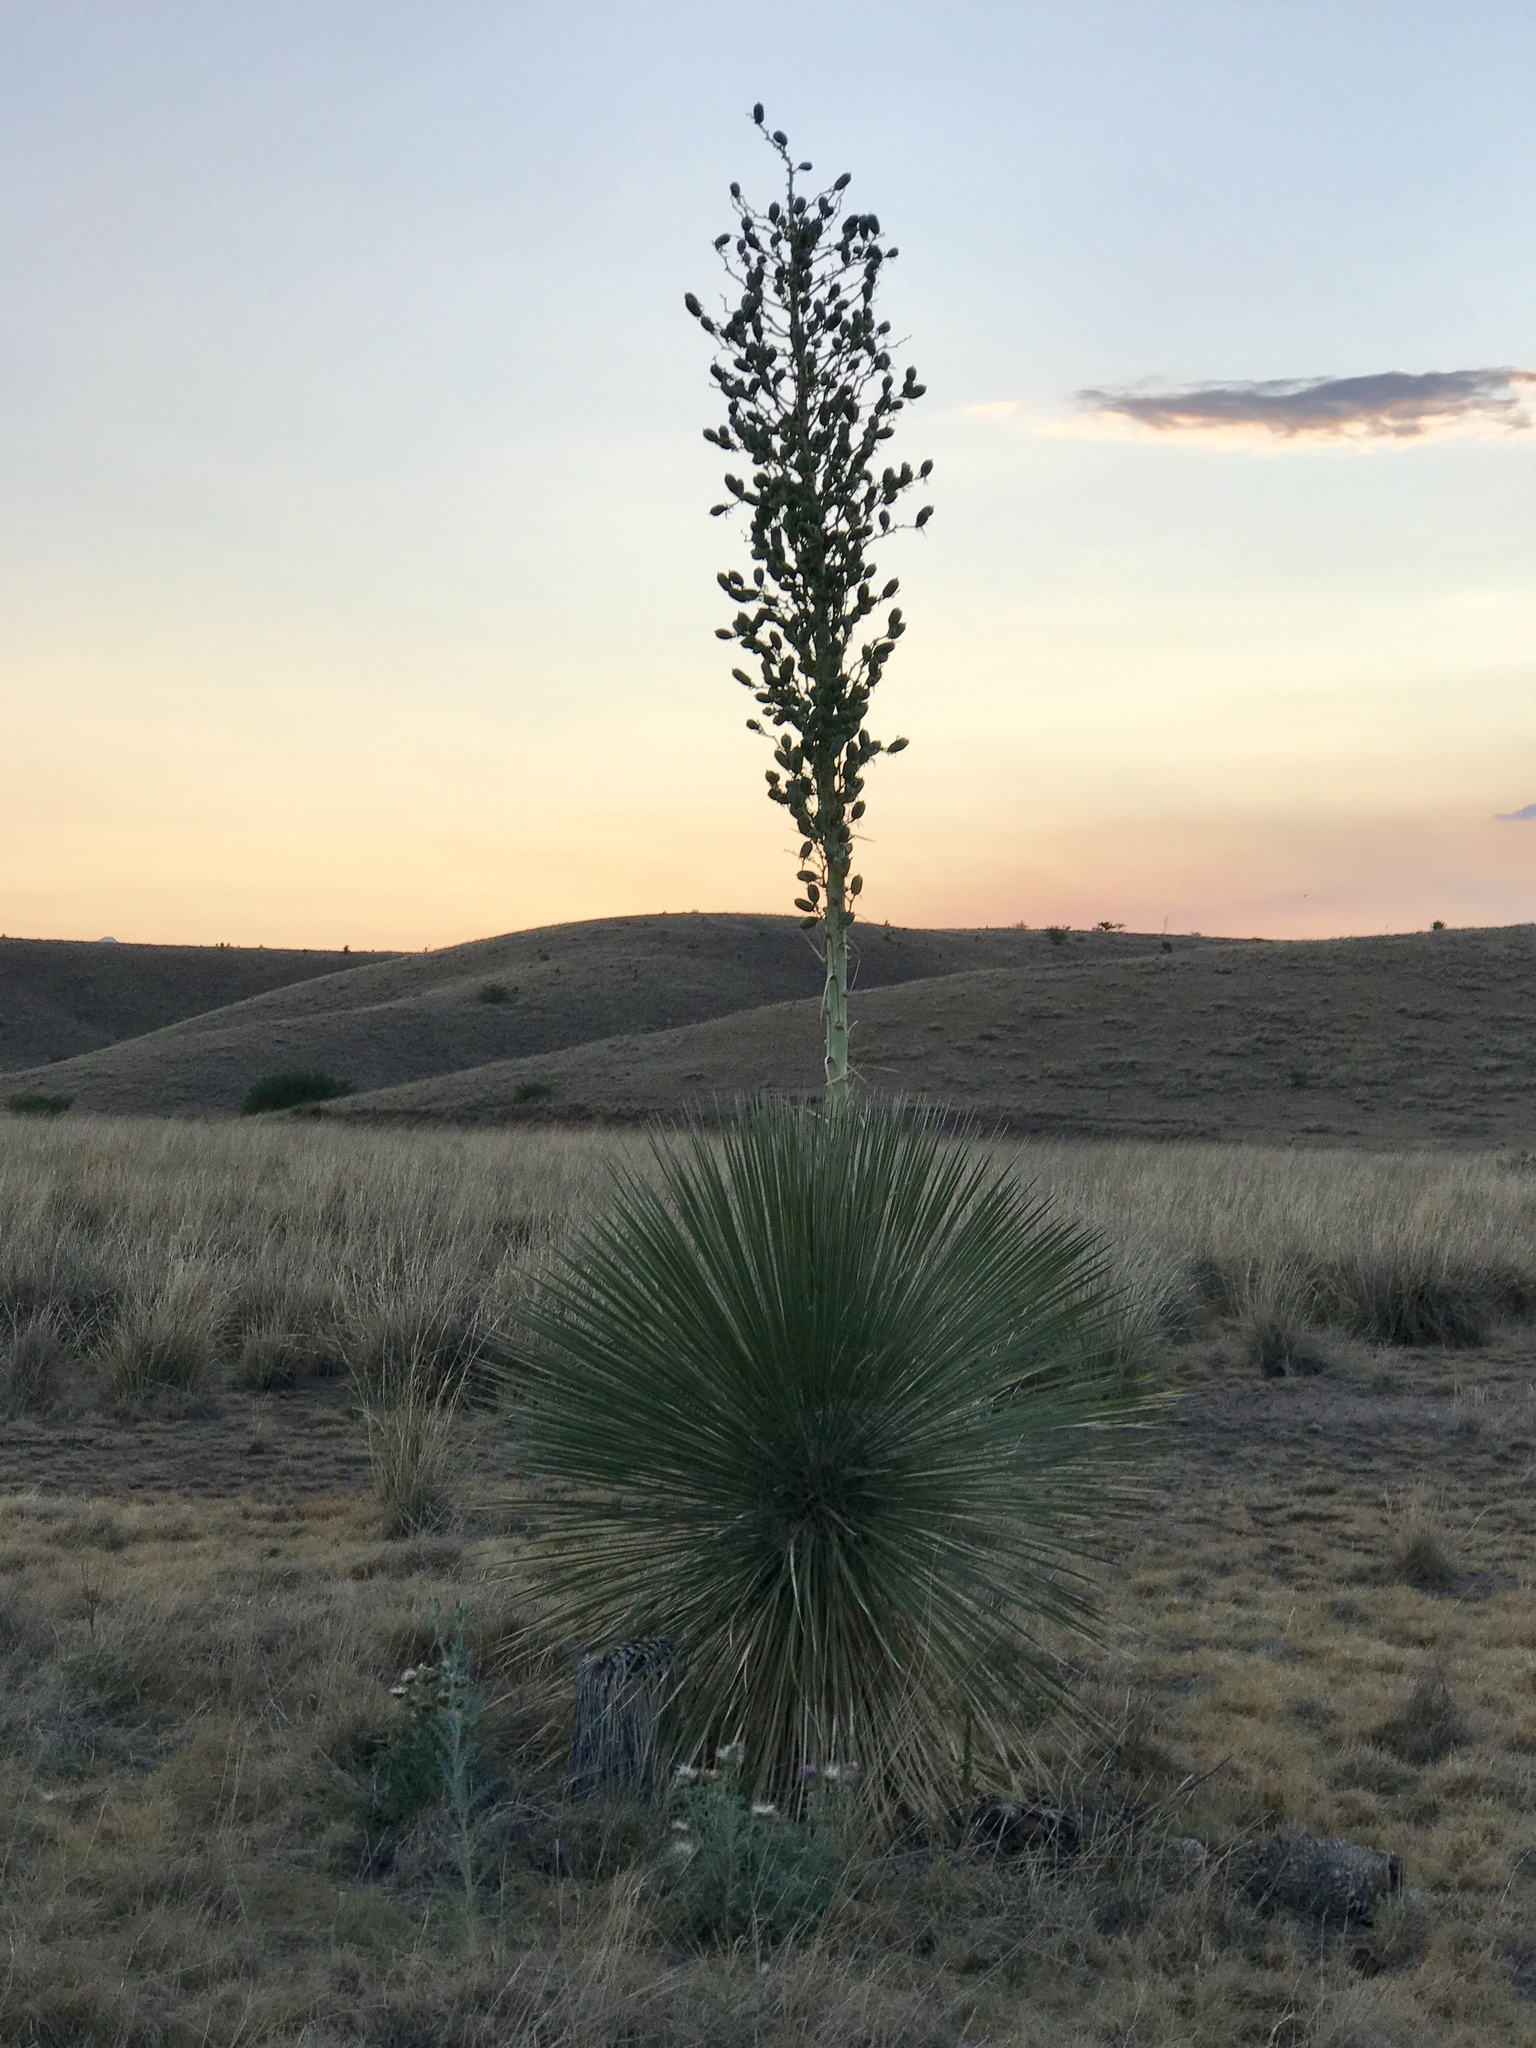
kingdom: Plantae
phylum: Tracheophyta
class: Liliopsida
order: Asparagales
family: Asparagaceae
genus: Yucca
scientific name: Yucca elata
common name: Palmella
